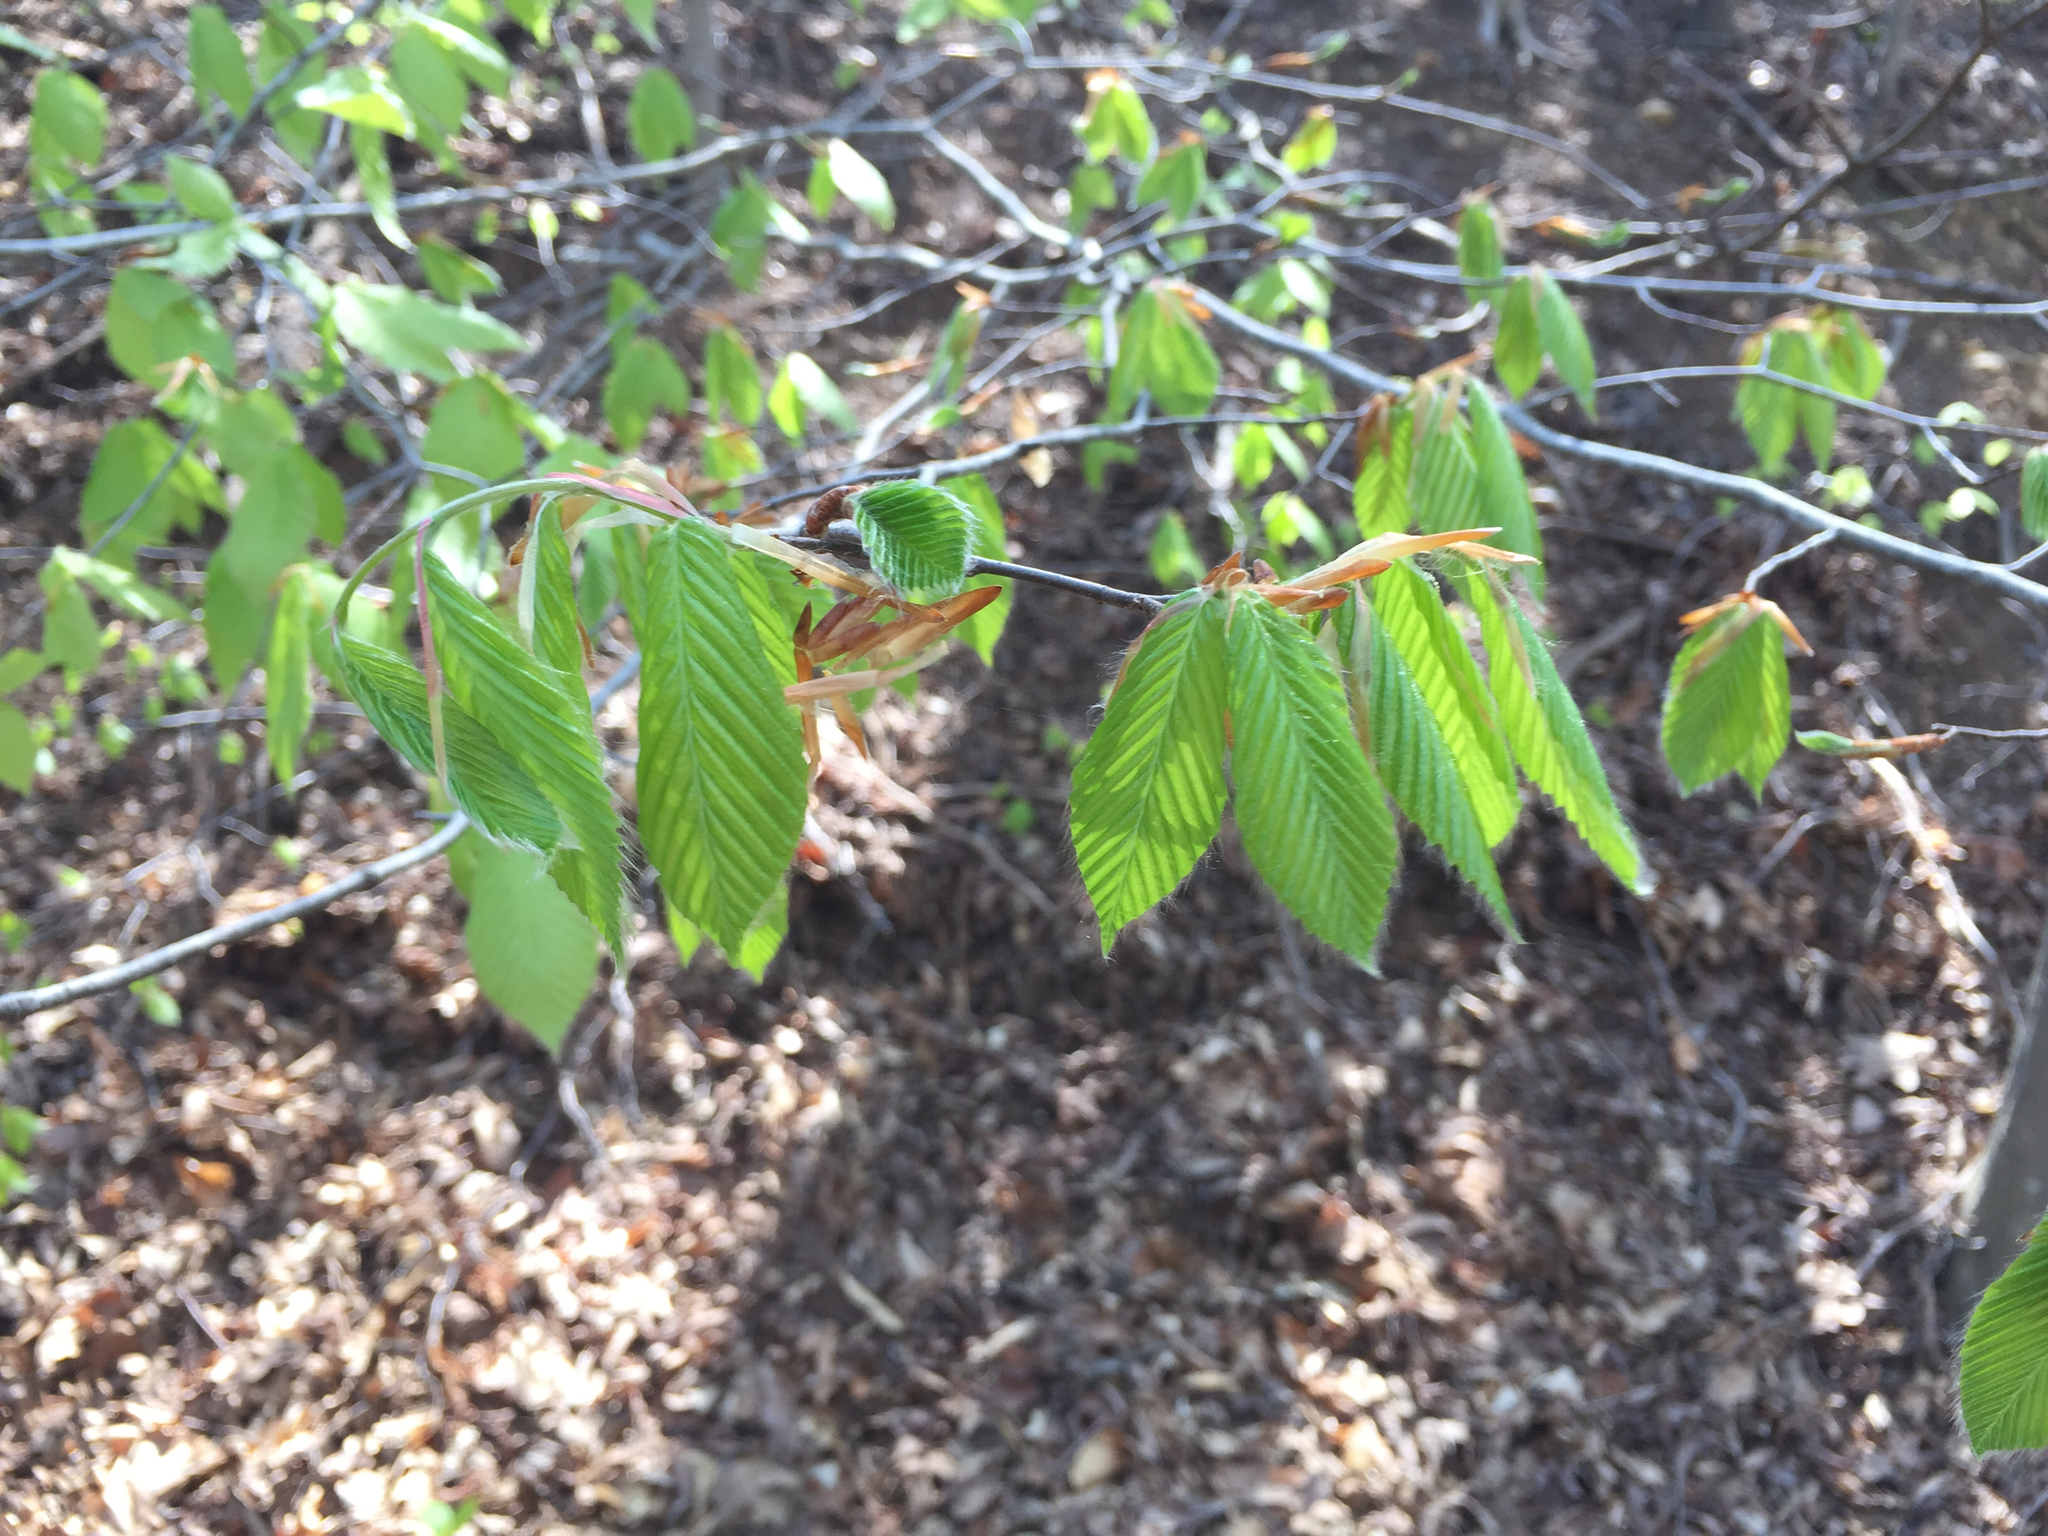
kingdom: Plantae
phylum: Tracheophyta
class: Magnoliopsida
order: Fagales
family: Fagaceae
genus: Fagus
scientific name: Fagus grandifolia
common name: American beech
